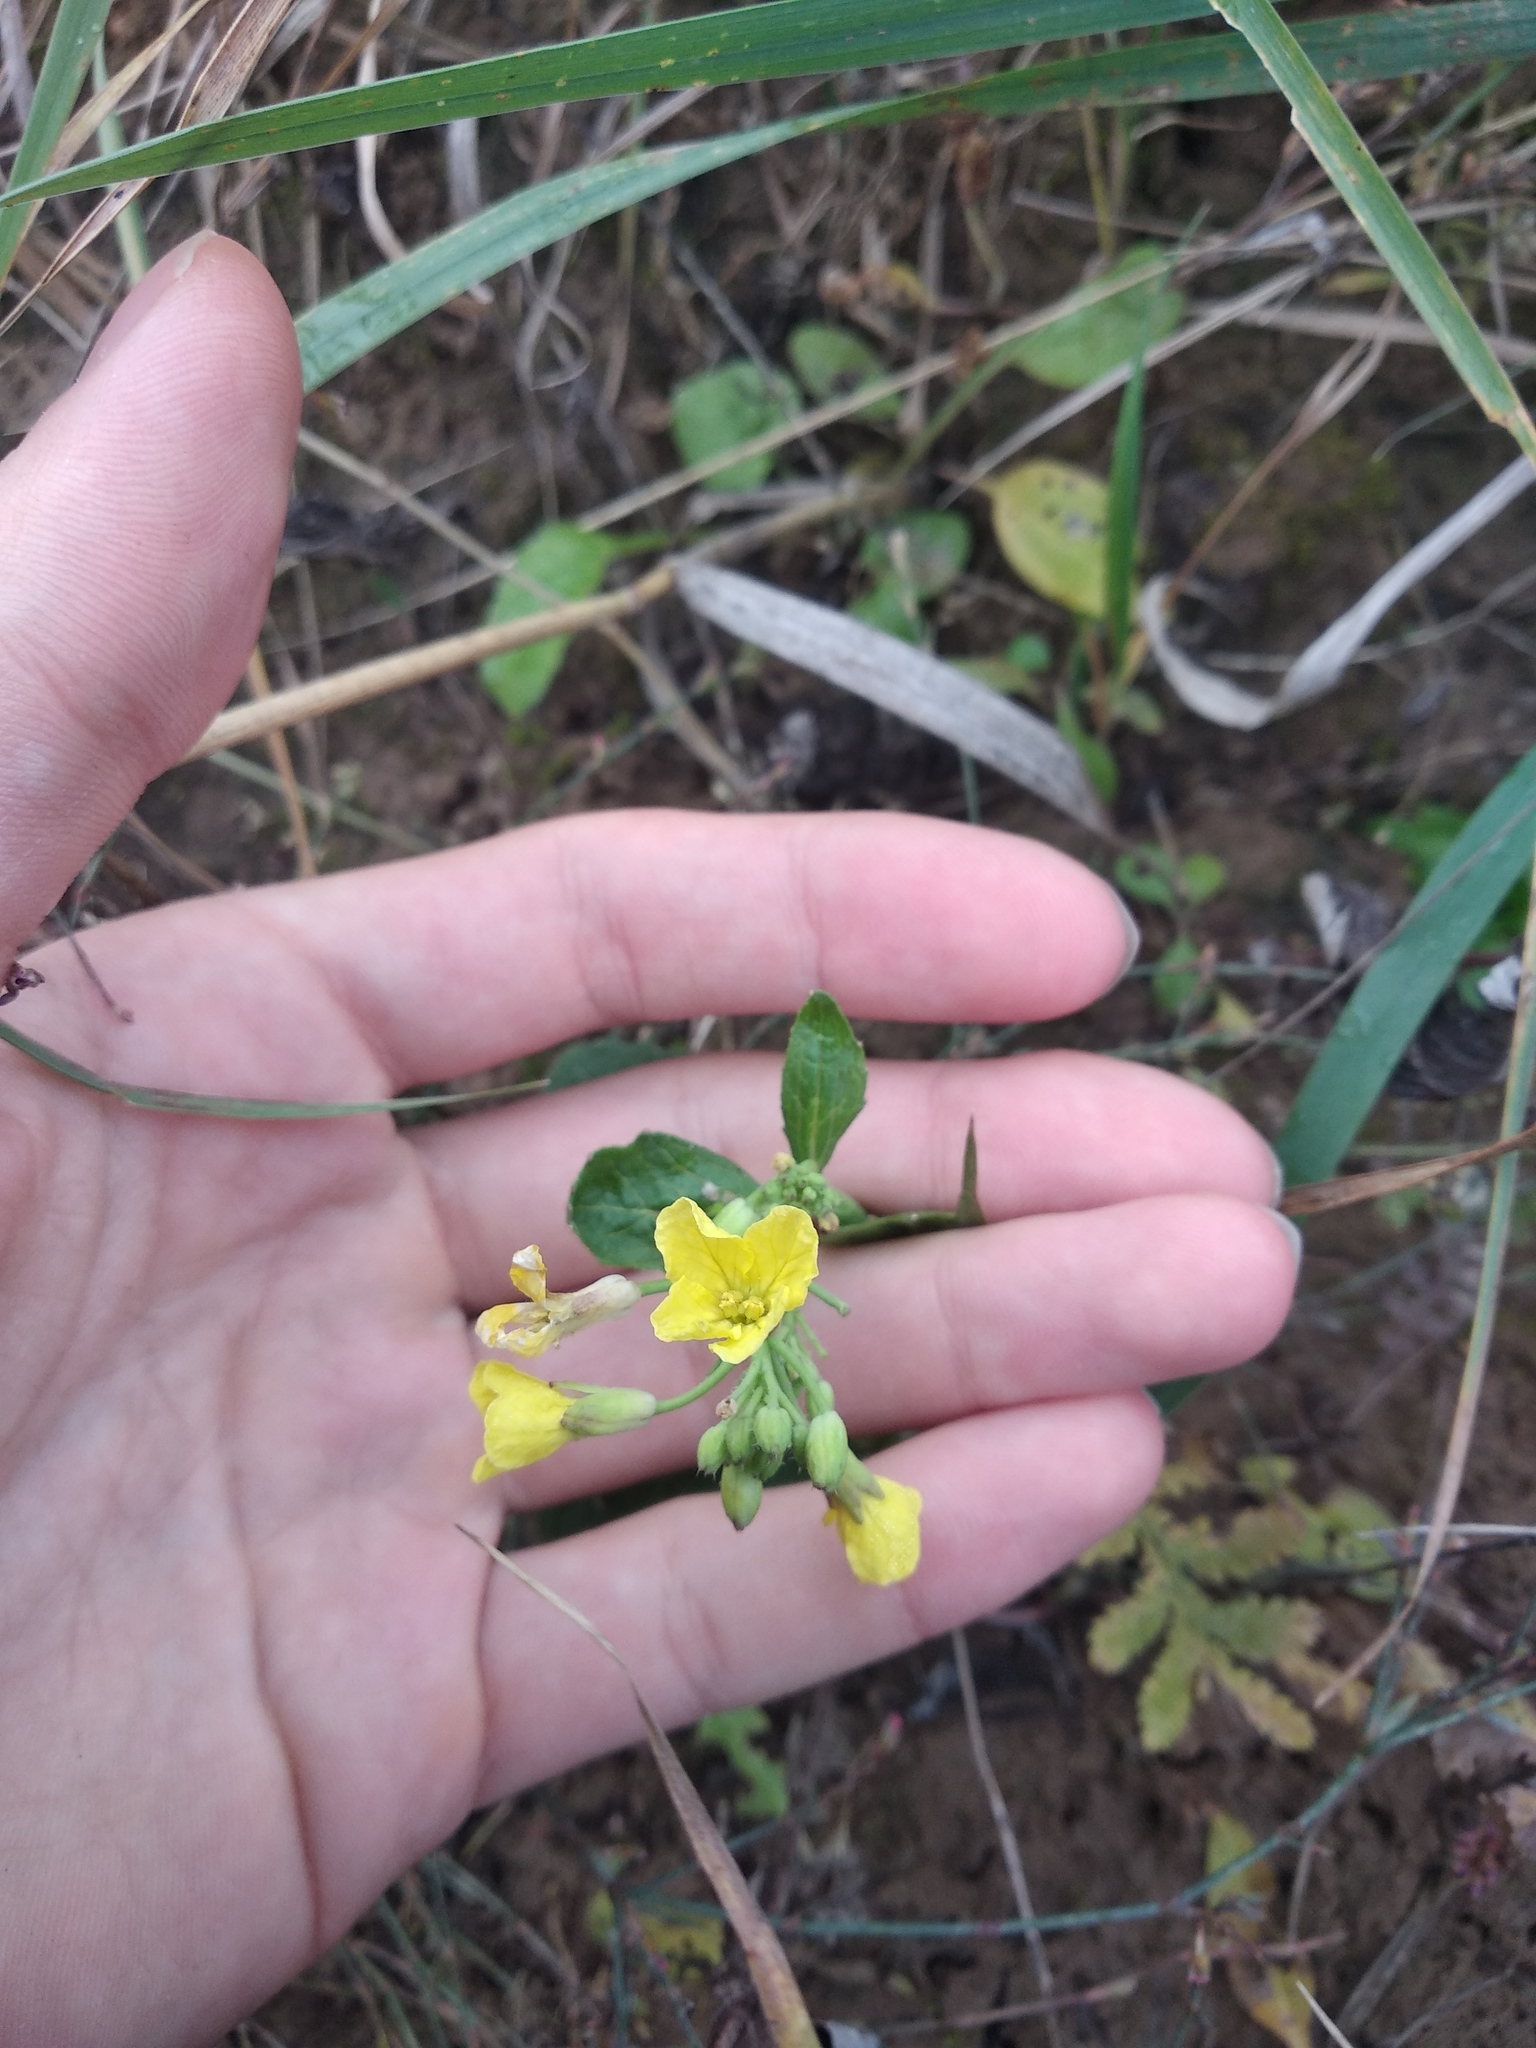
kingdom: Plantae
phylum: Tracheophyta
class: Magnoliopsida
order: Brassicales
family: Brassicaceae
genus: Raphanus
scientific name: Raphanus raphanistrum
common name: Wild radish
